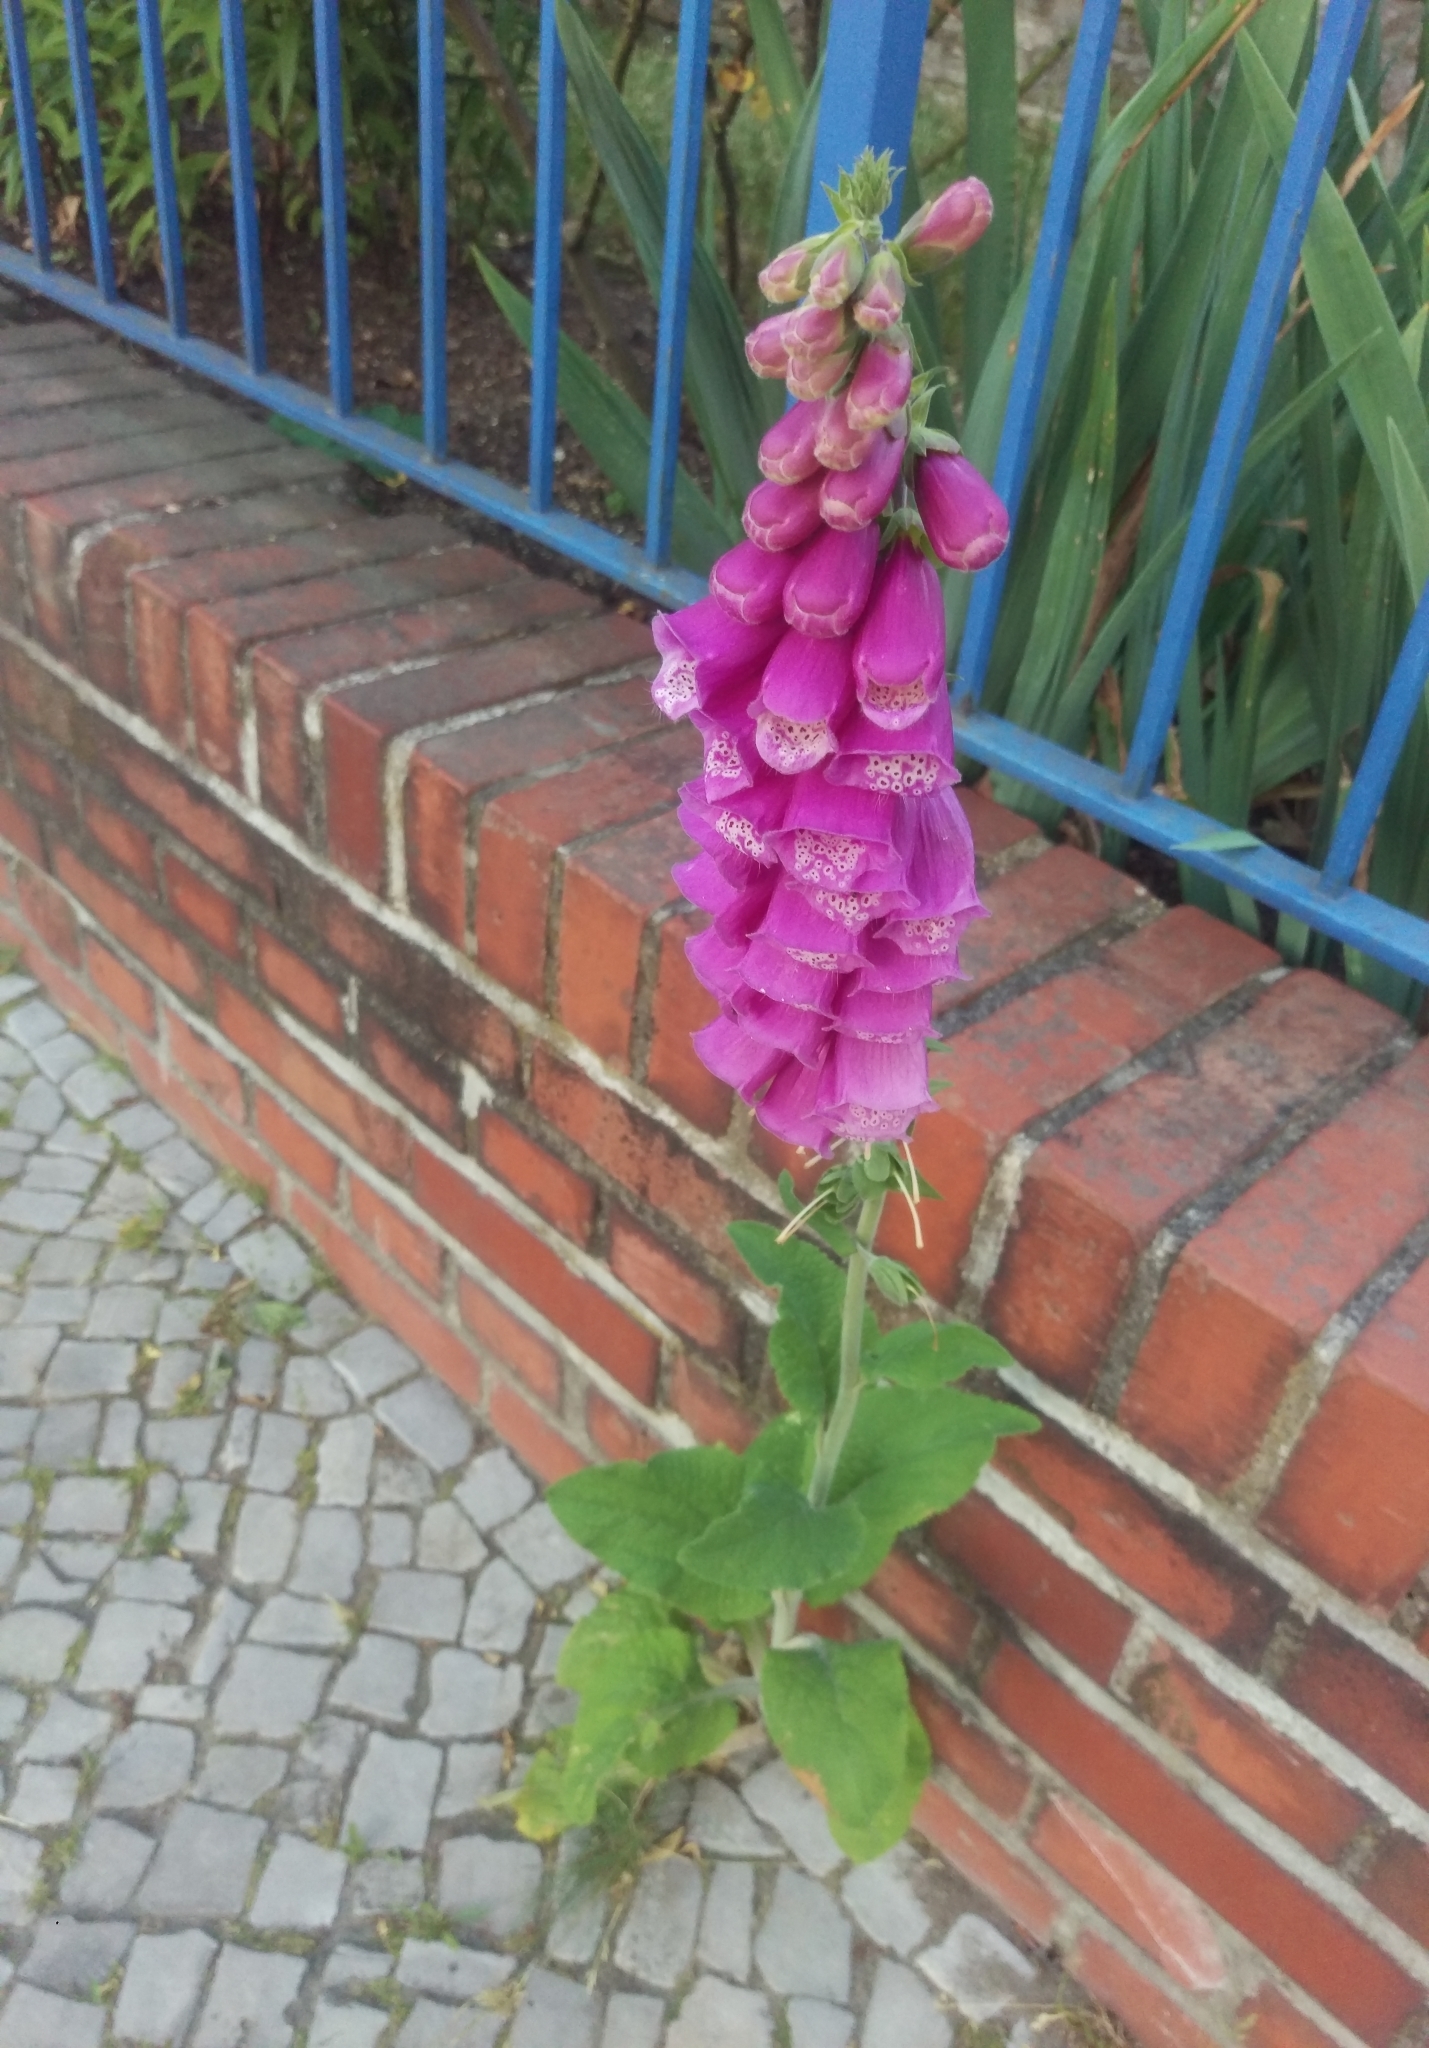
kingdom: Plantae
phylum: Tracheophyta
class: Magnoliopsida
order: Lamiales
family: Plantaginaceae
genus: Digitalis
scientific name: Digitalis purpurea
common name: Foxglove
